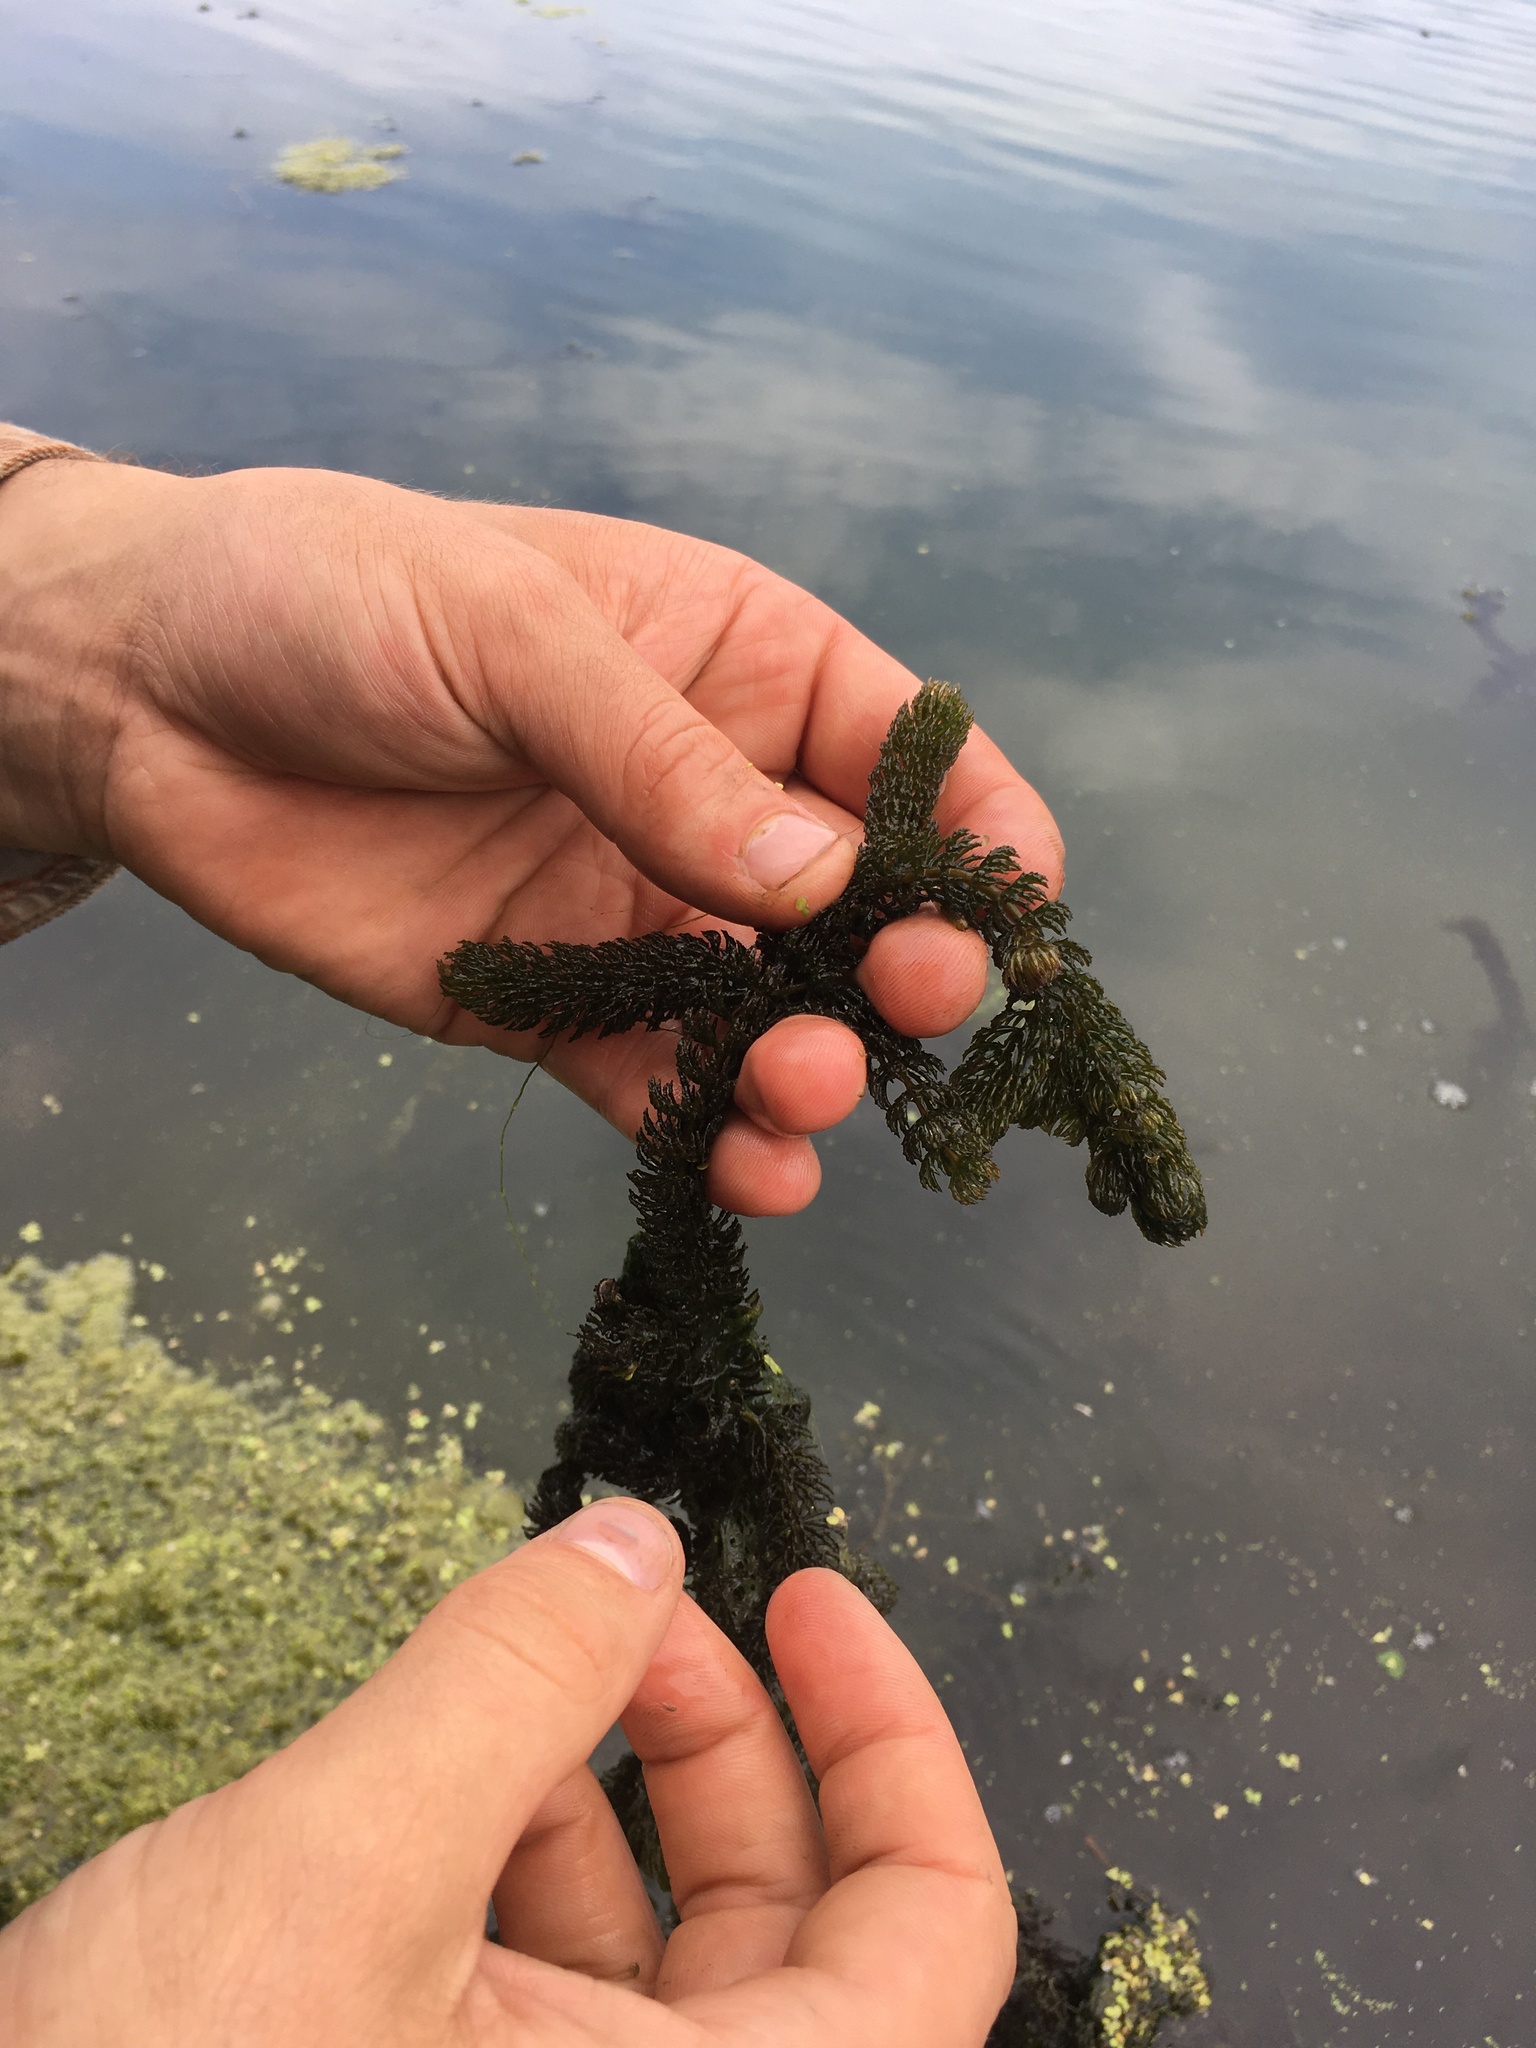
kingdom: Plantae
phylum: Tracheophyta
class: Magnoliopsida
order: Ceratophyllales
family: Ceratophyllaceae
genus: Ceratophyllum
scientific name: Ceratophyllum demersum
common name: Rigid hornwort
